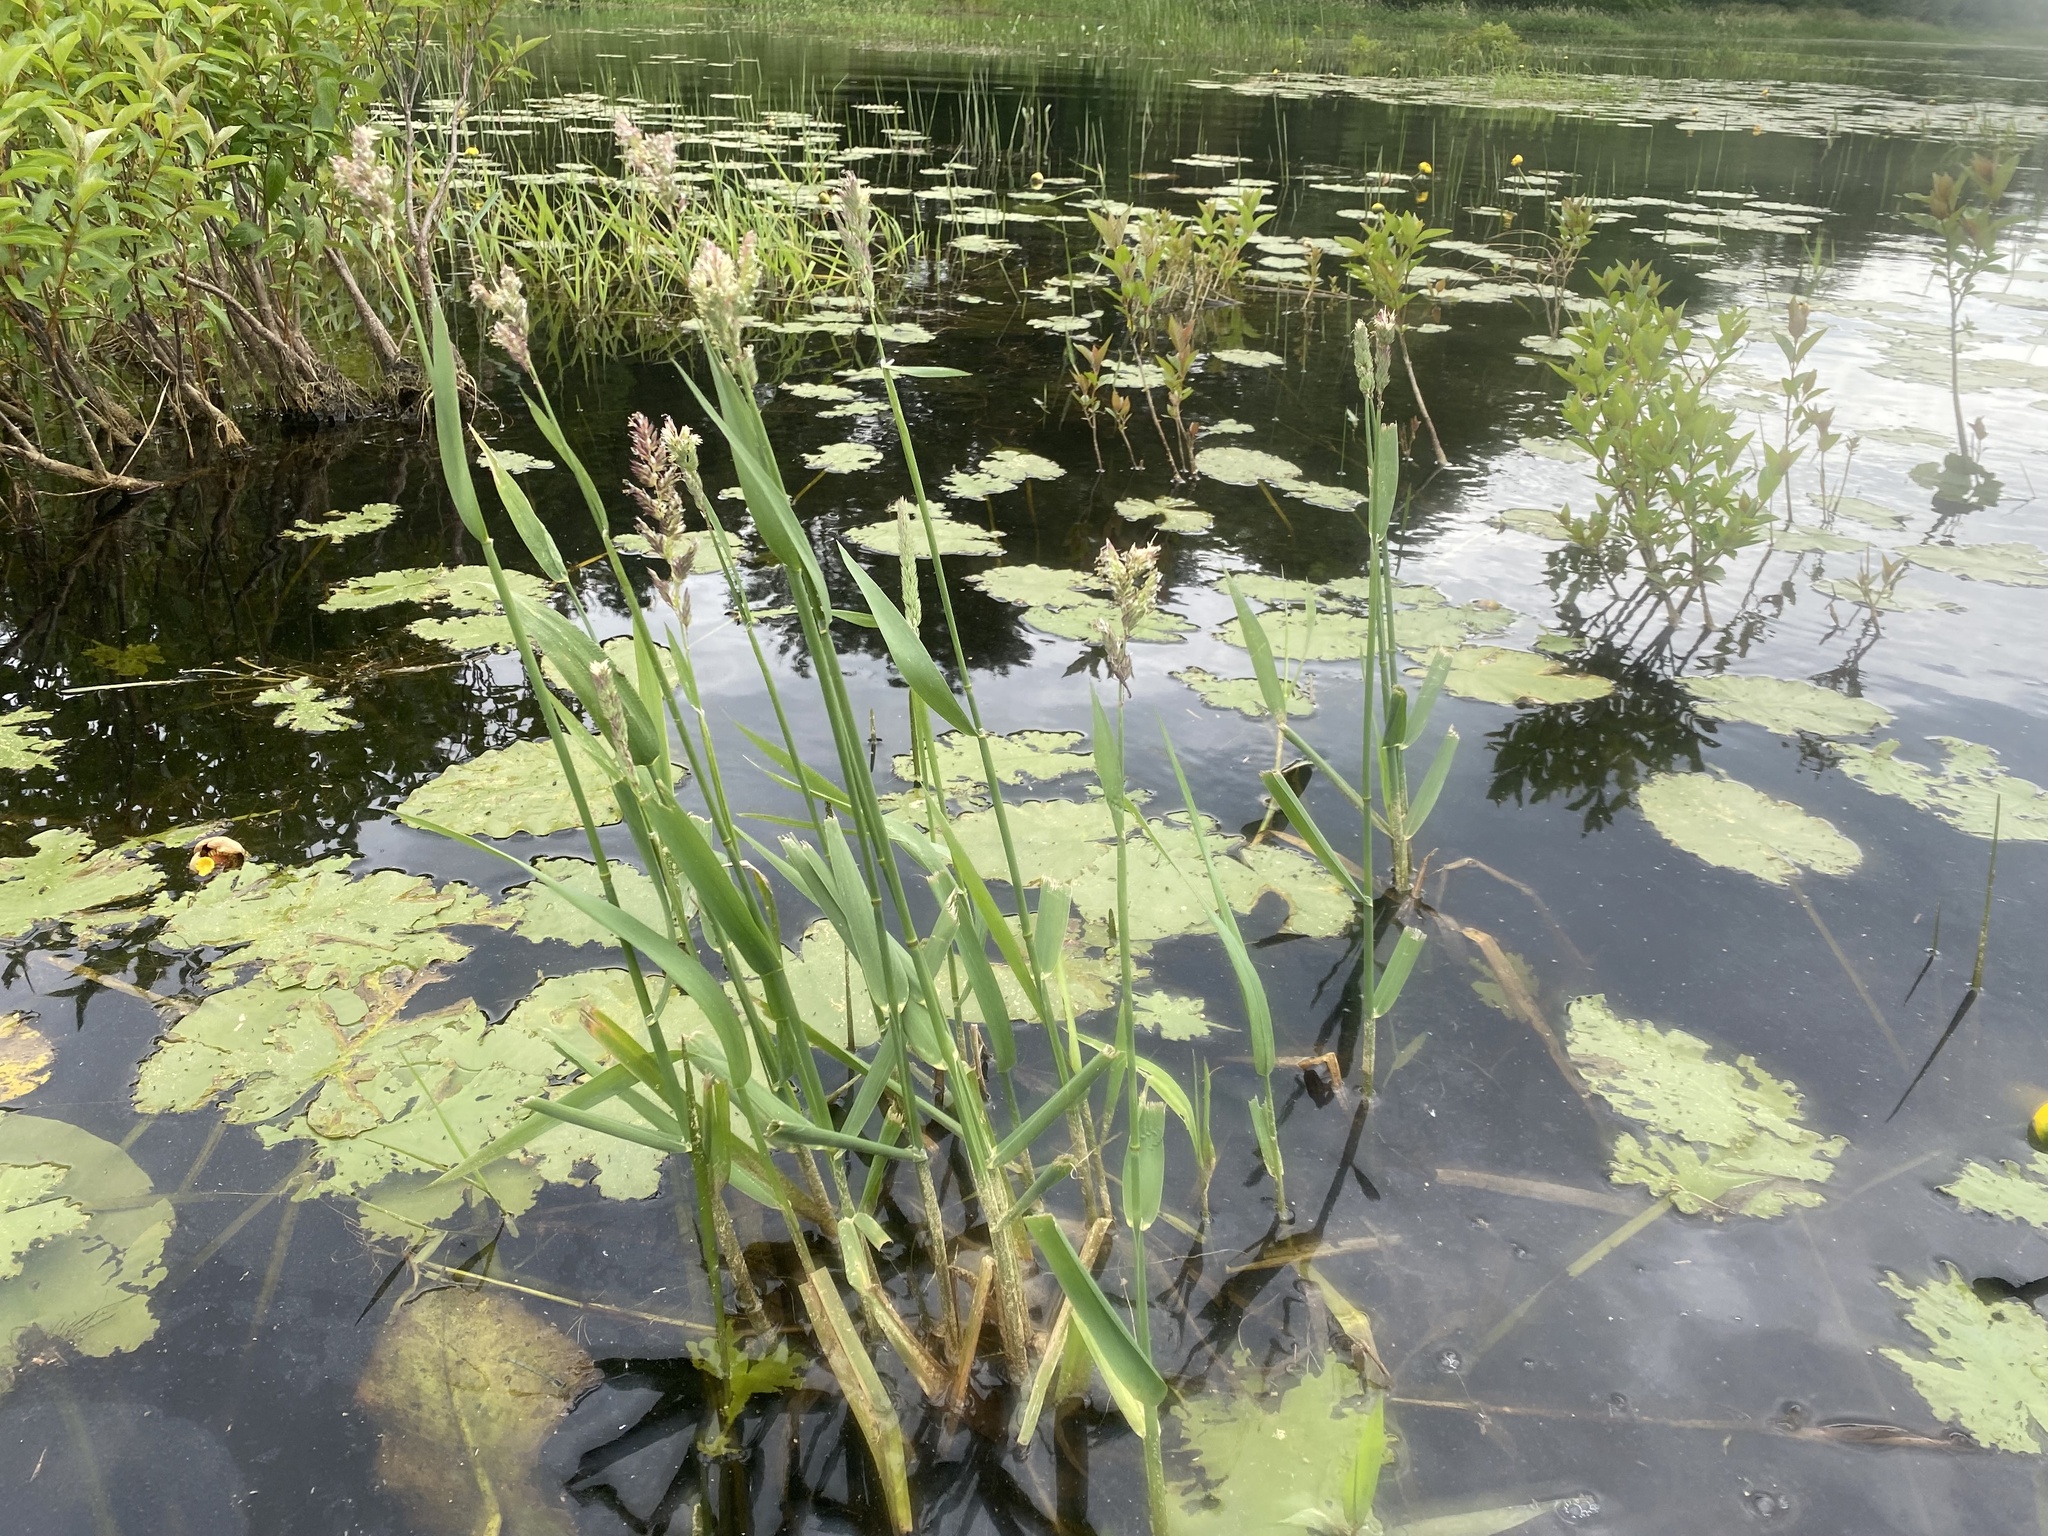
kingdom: Plantae
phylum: Tracheophyta
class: Liliopsida
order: Poales
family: Poaceae
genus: Phalaris
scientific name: Phalaris arundinacea
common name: Reed canary-grass
